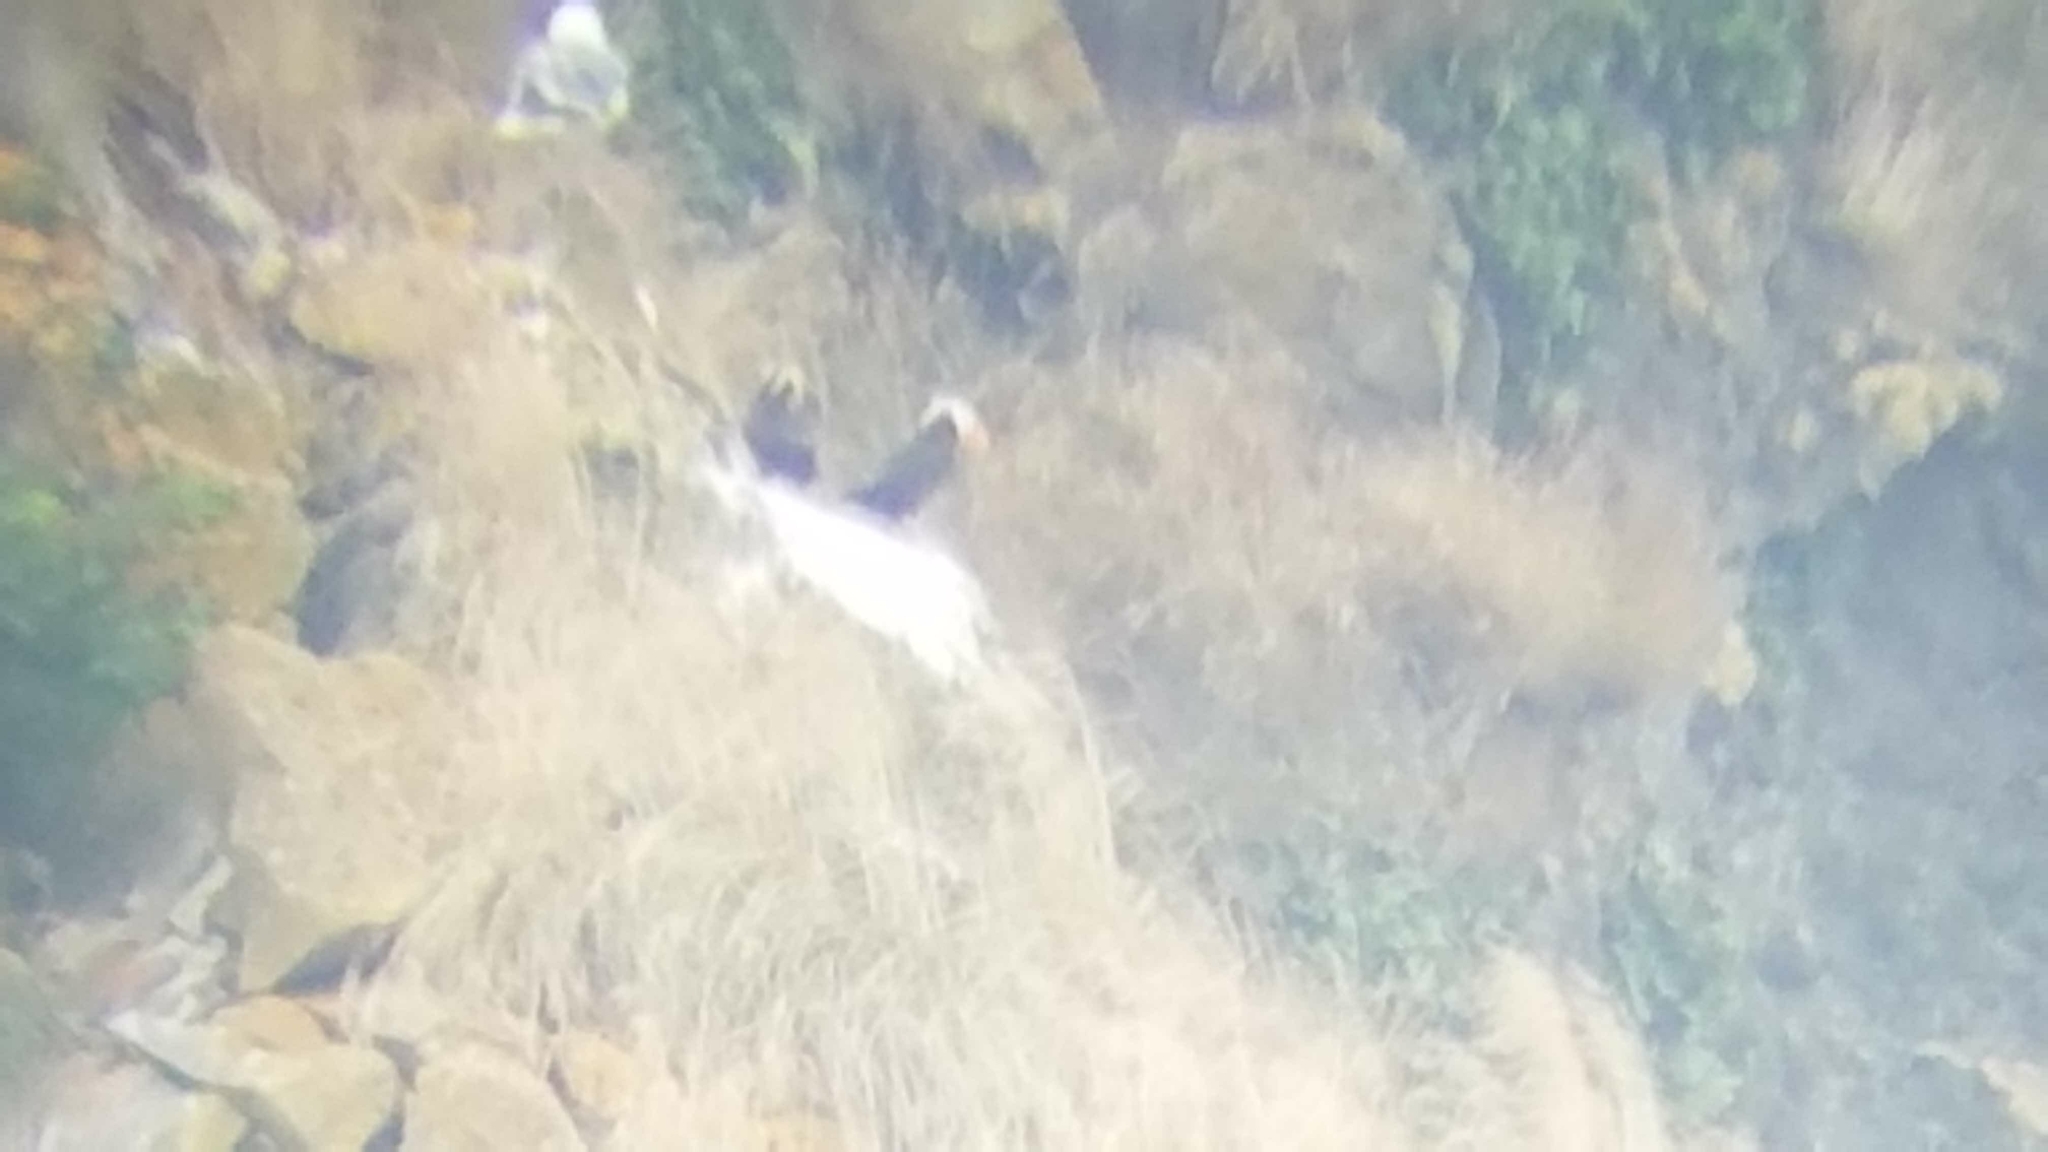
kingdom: Animalia
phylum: Chordata
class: Aves
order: Charadriiformes
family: Alcidae
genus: Fratercula
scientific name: Fratercula cirrhata
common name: Tufted puffin
